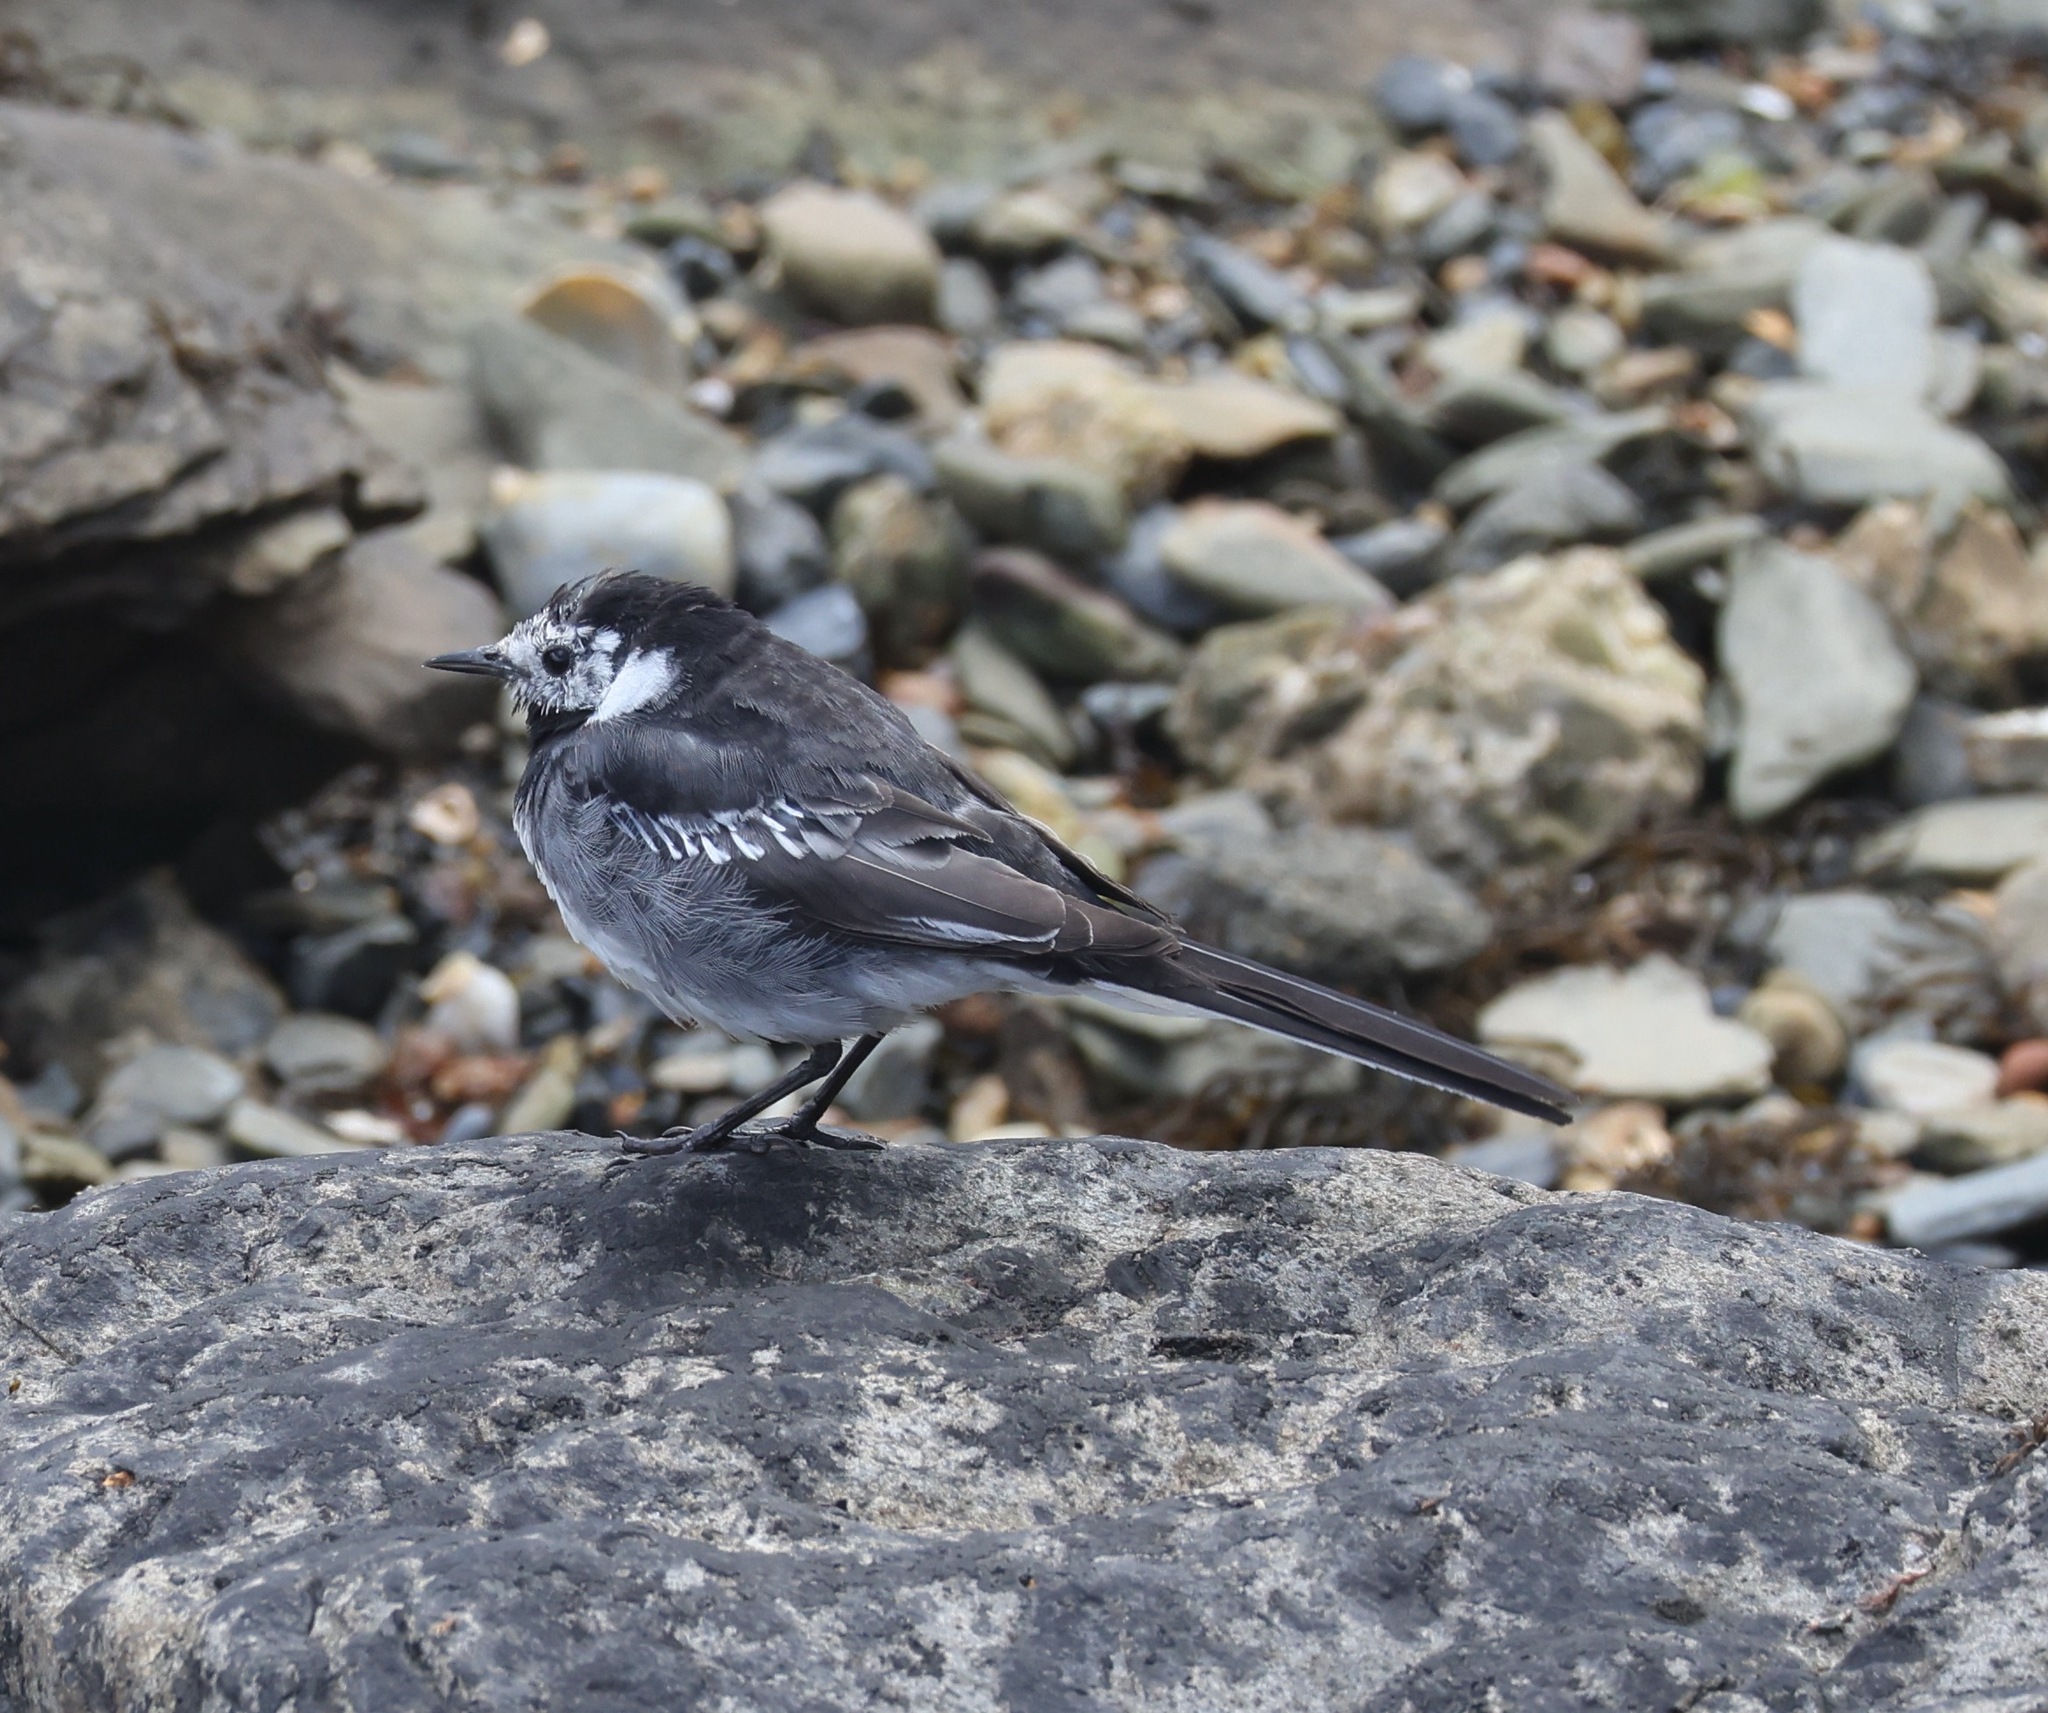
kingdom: Animalia
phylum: Chordata
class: Aves
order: Passeriformes
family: Motacillidae
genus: Motacilla
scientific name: Motacilla alba
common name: White wagtail
